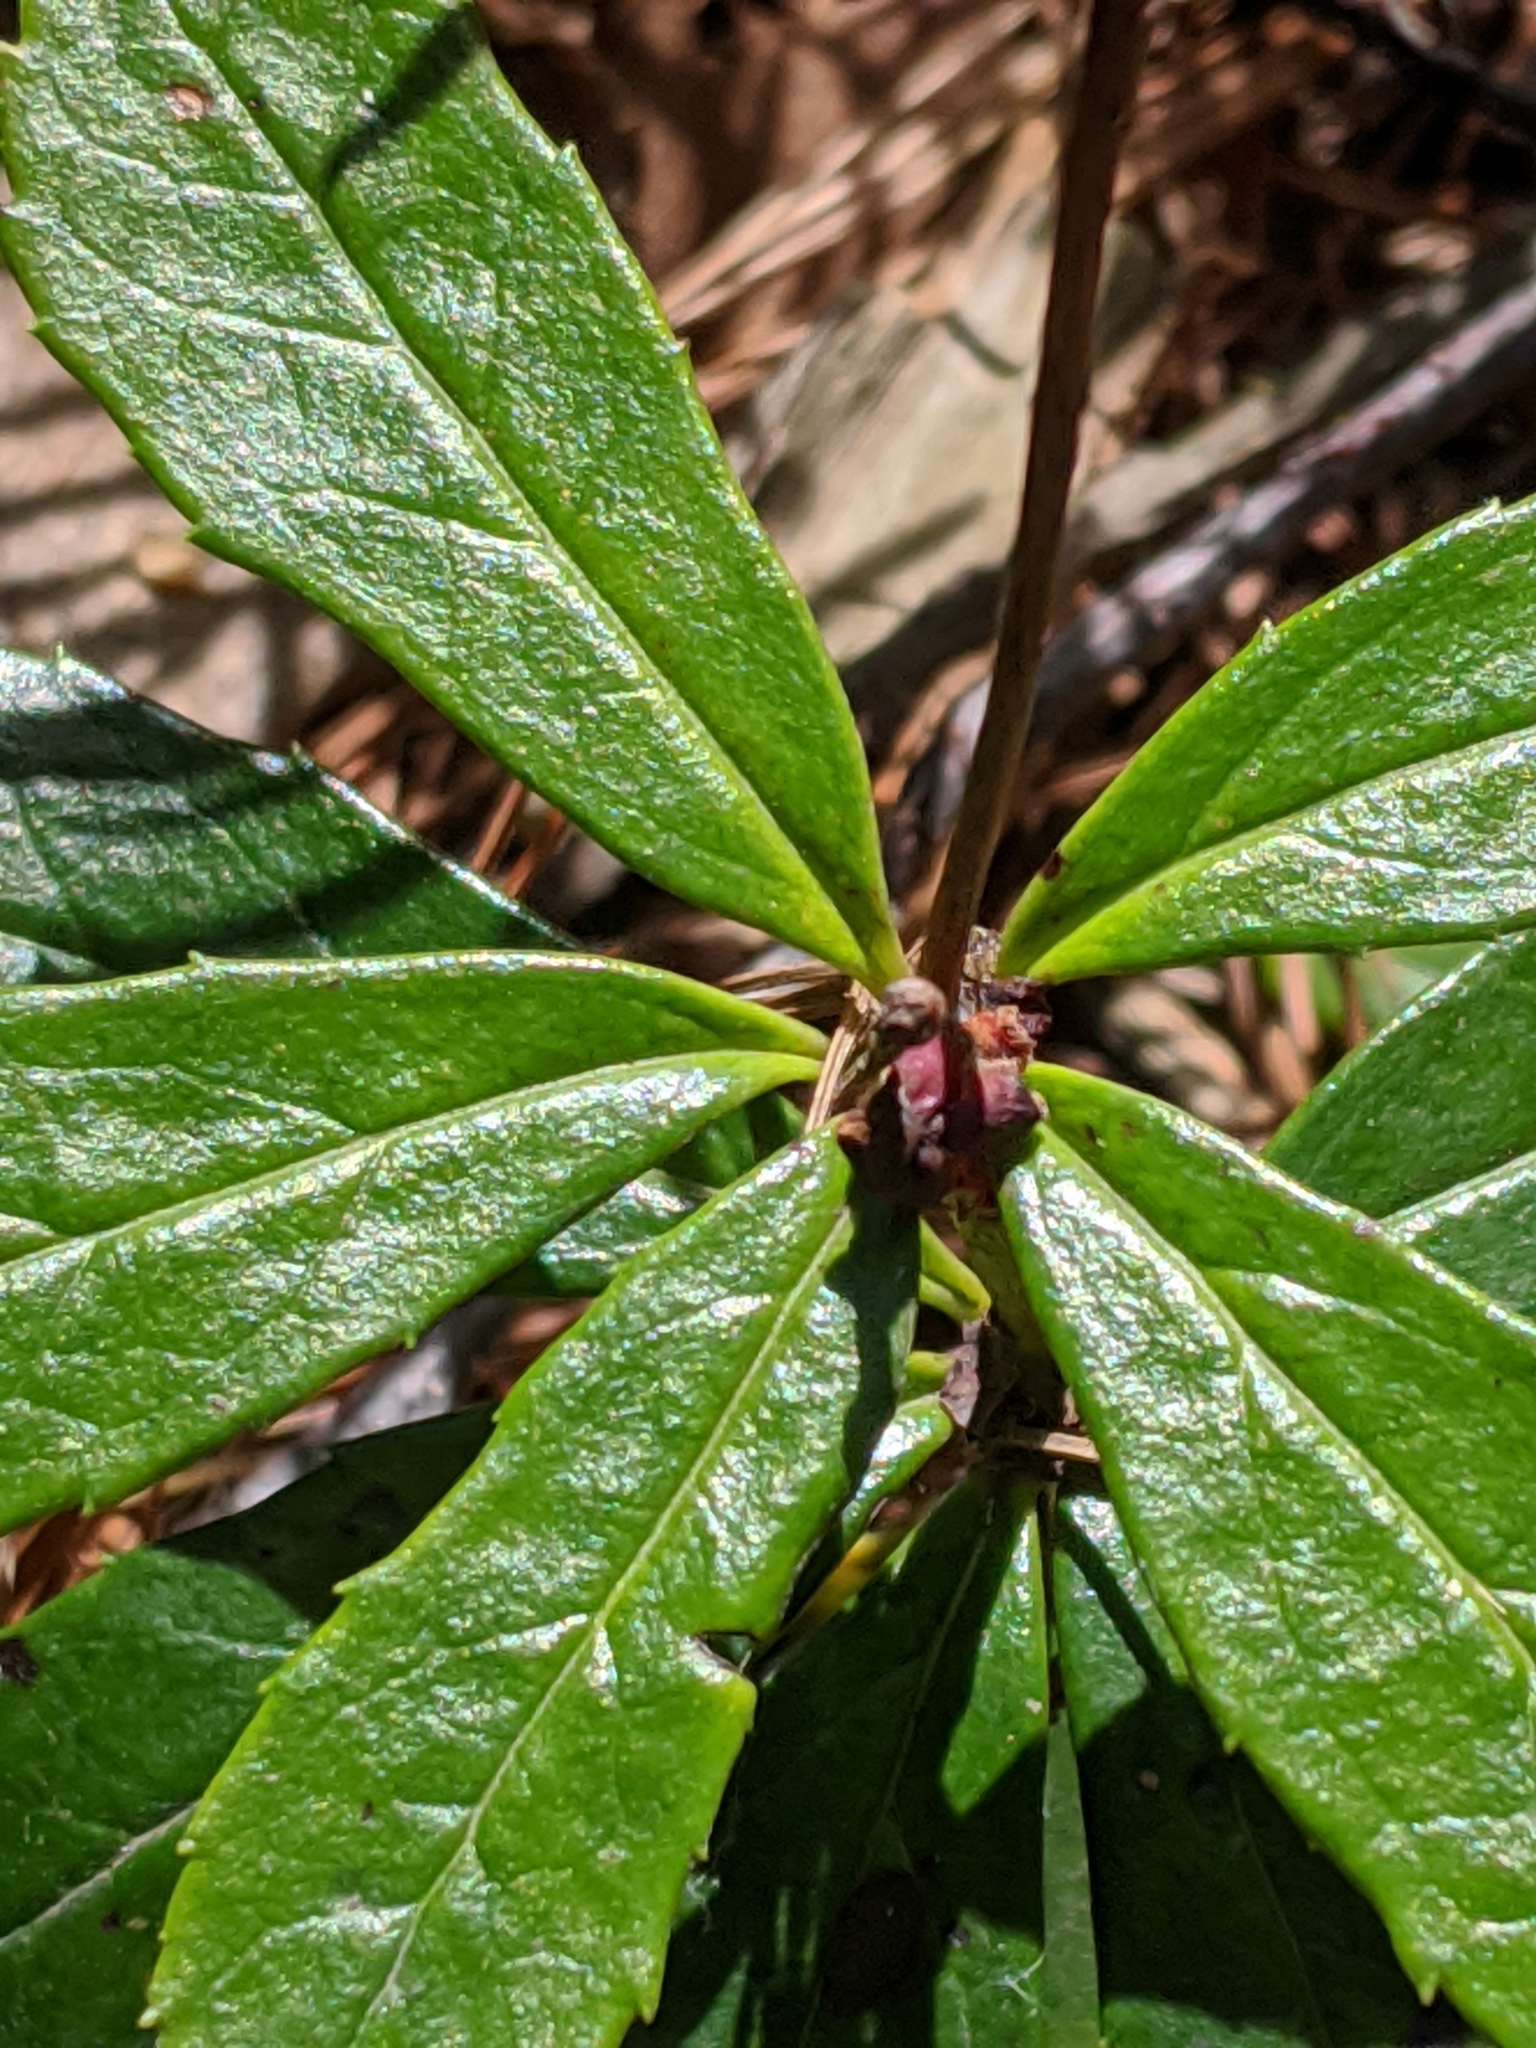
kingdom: Plantae
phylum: Tracheophyta
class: Magnoliopsida
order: Ericales
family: Ericaceae
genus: Chimaphila
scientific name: Chimaphila umbellata
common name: Pipsissewa
